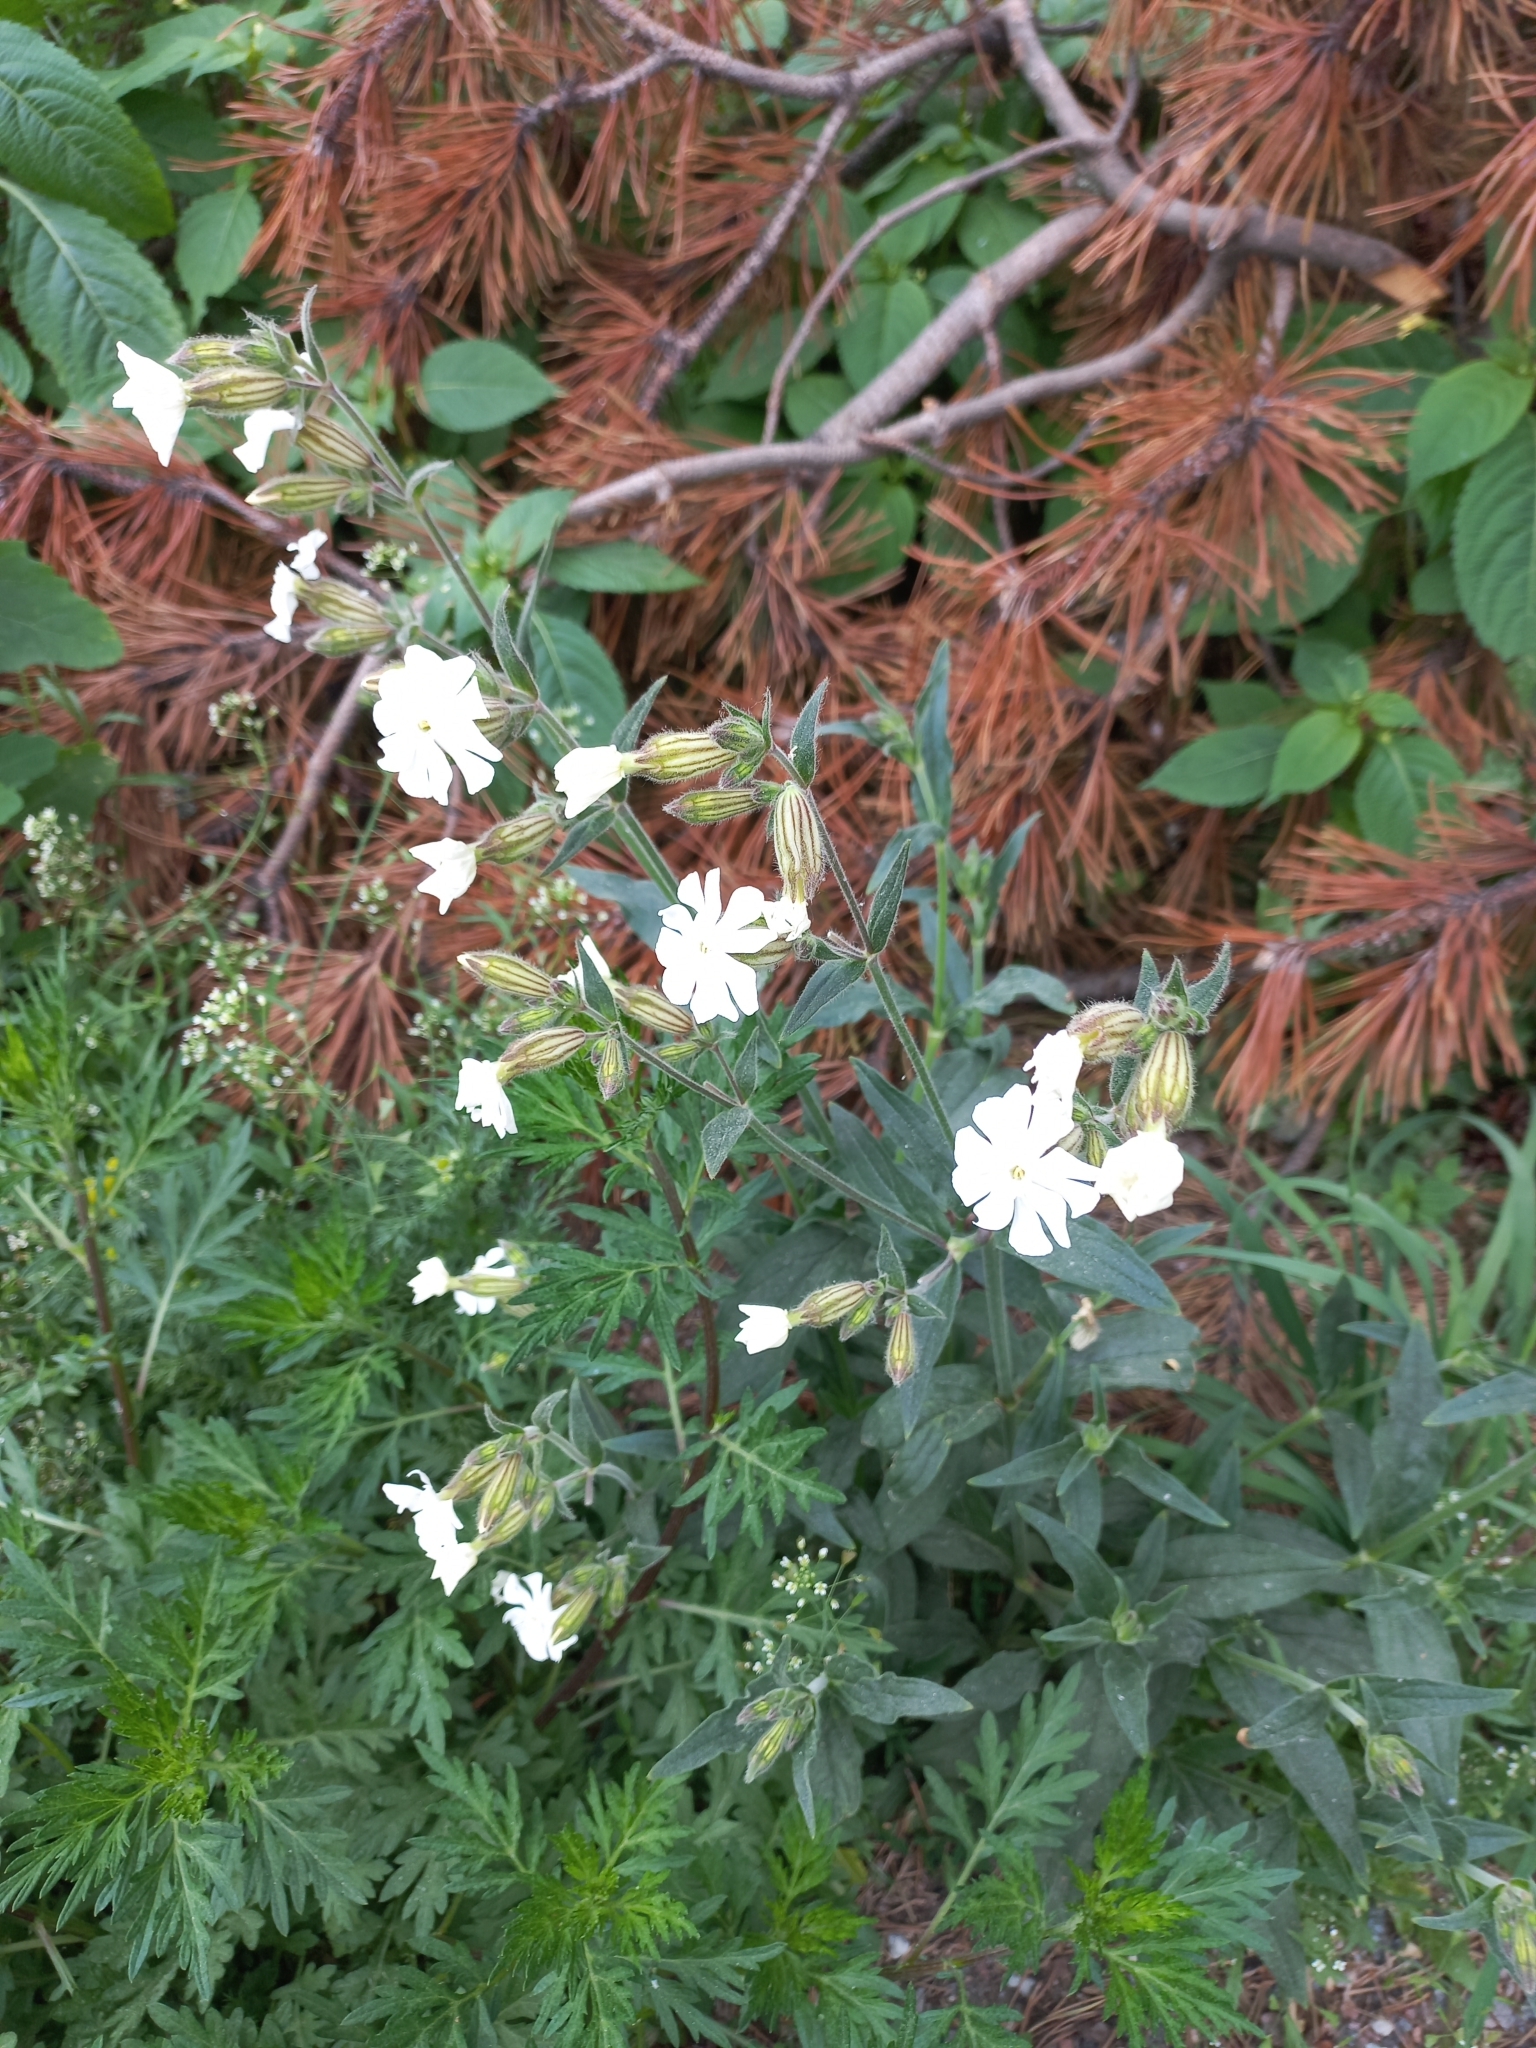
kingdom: Plantae
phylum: Tracheophyta
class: Magnoliopsida
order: Caryophyllales
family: Caryophyllaceae
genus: Silene
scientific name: Silene latifolia
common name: White campion
